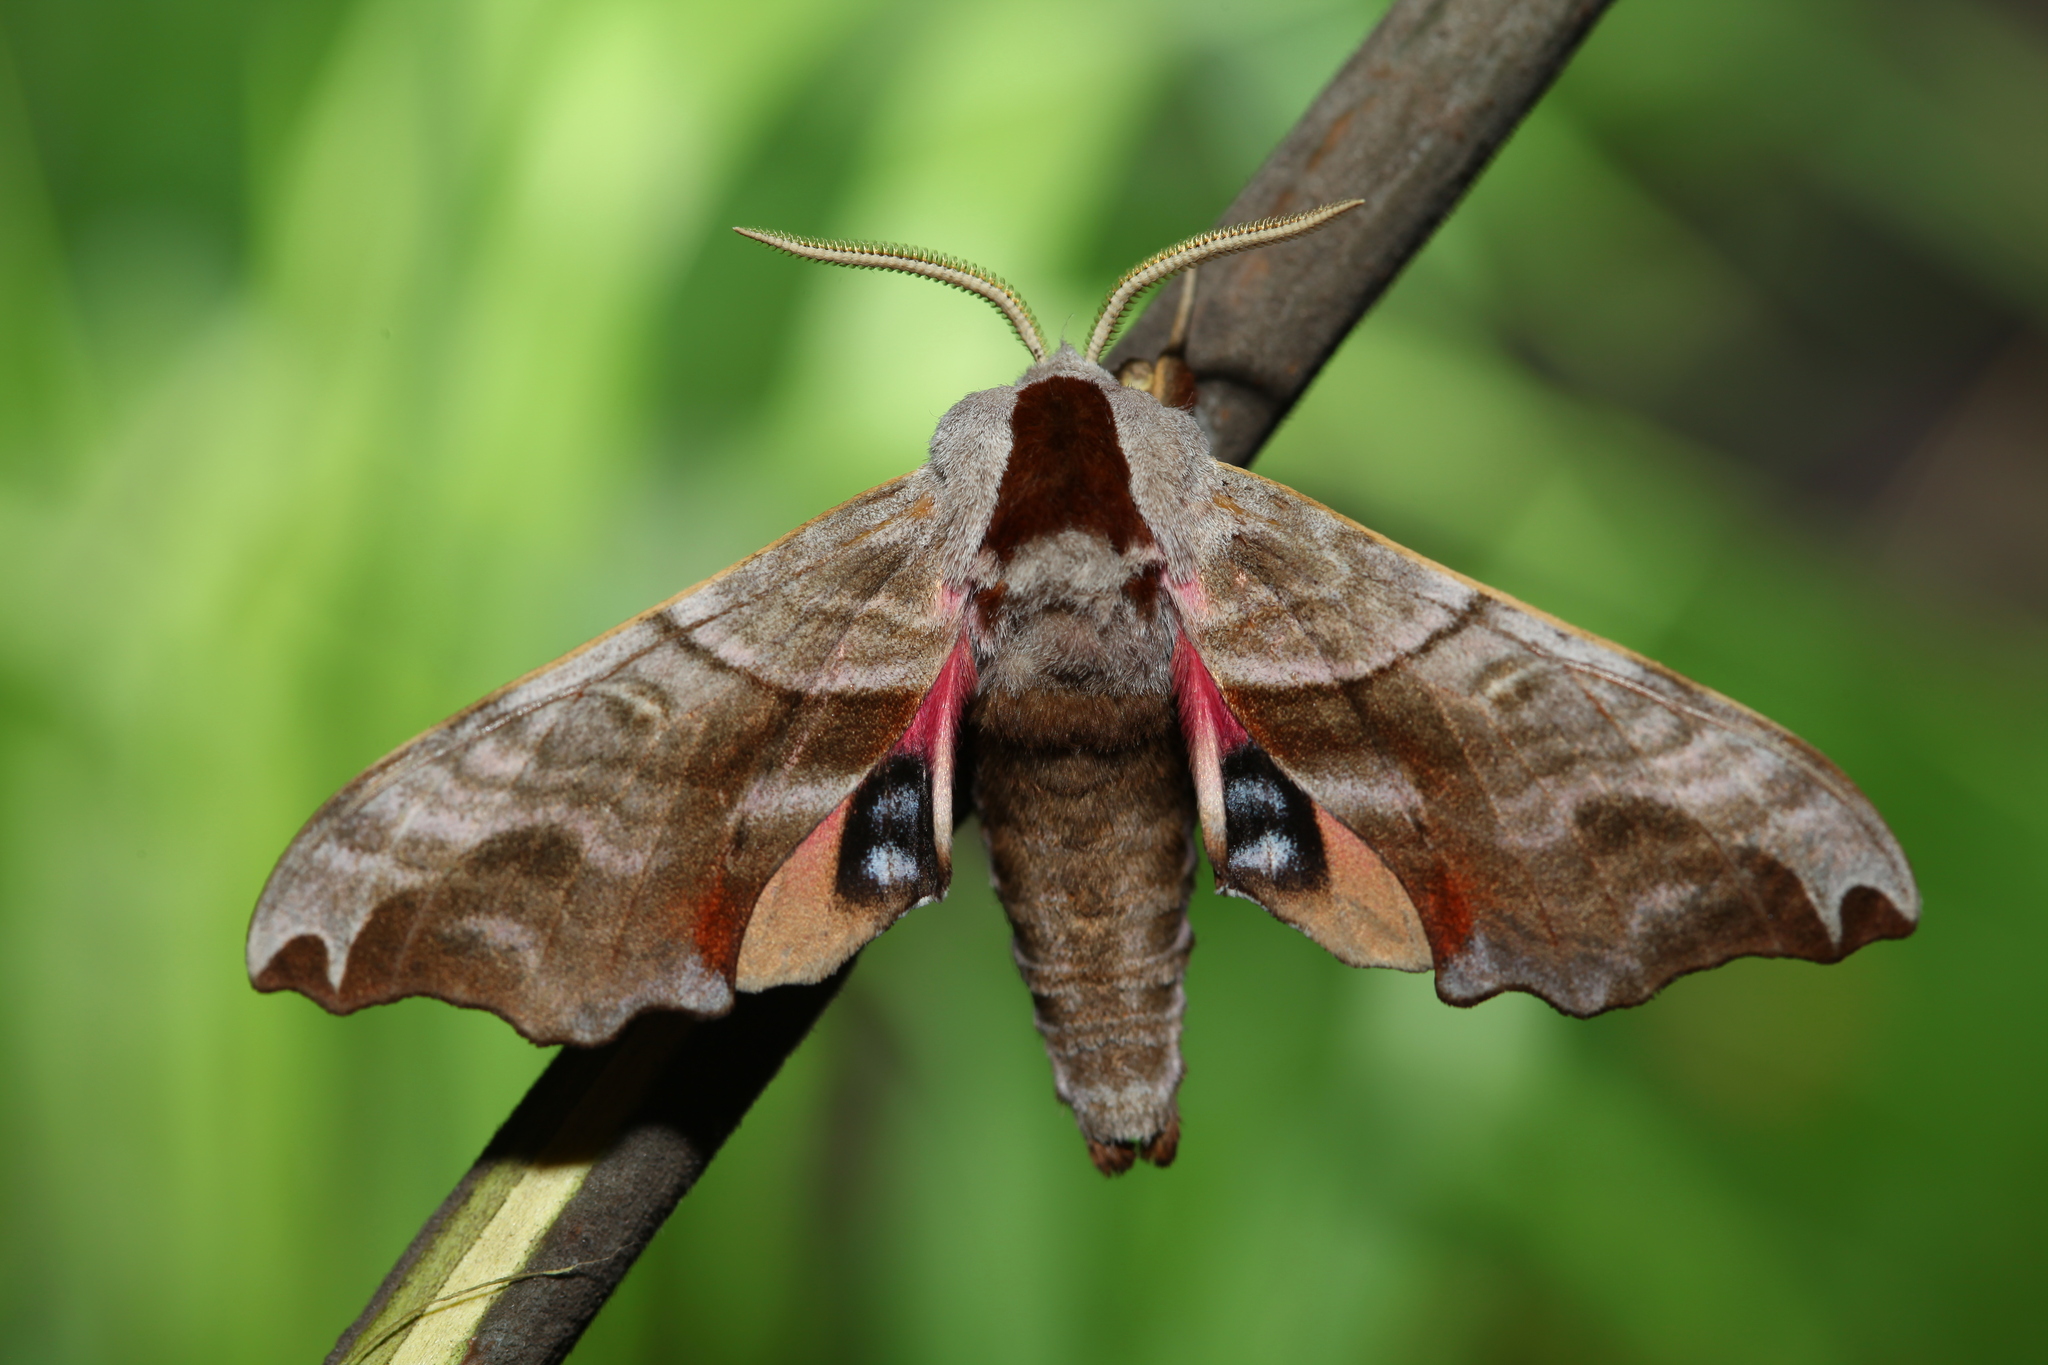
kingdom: Animalia
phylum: Arthropoda
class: Insecta
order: Lepidoptera
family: Sphingidae
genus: Smerinthus
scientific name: Smerinthus caecus
